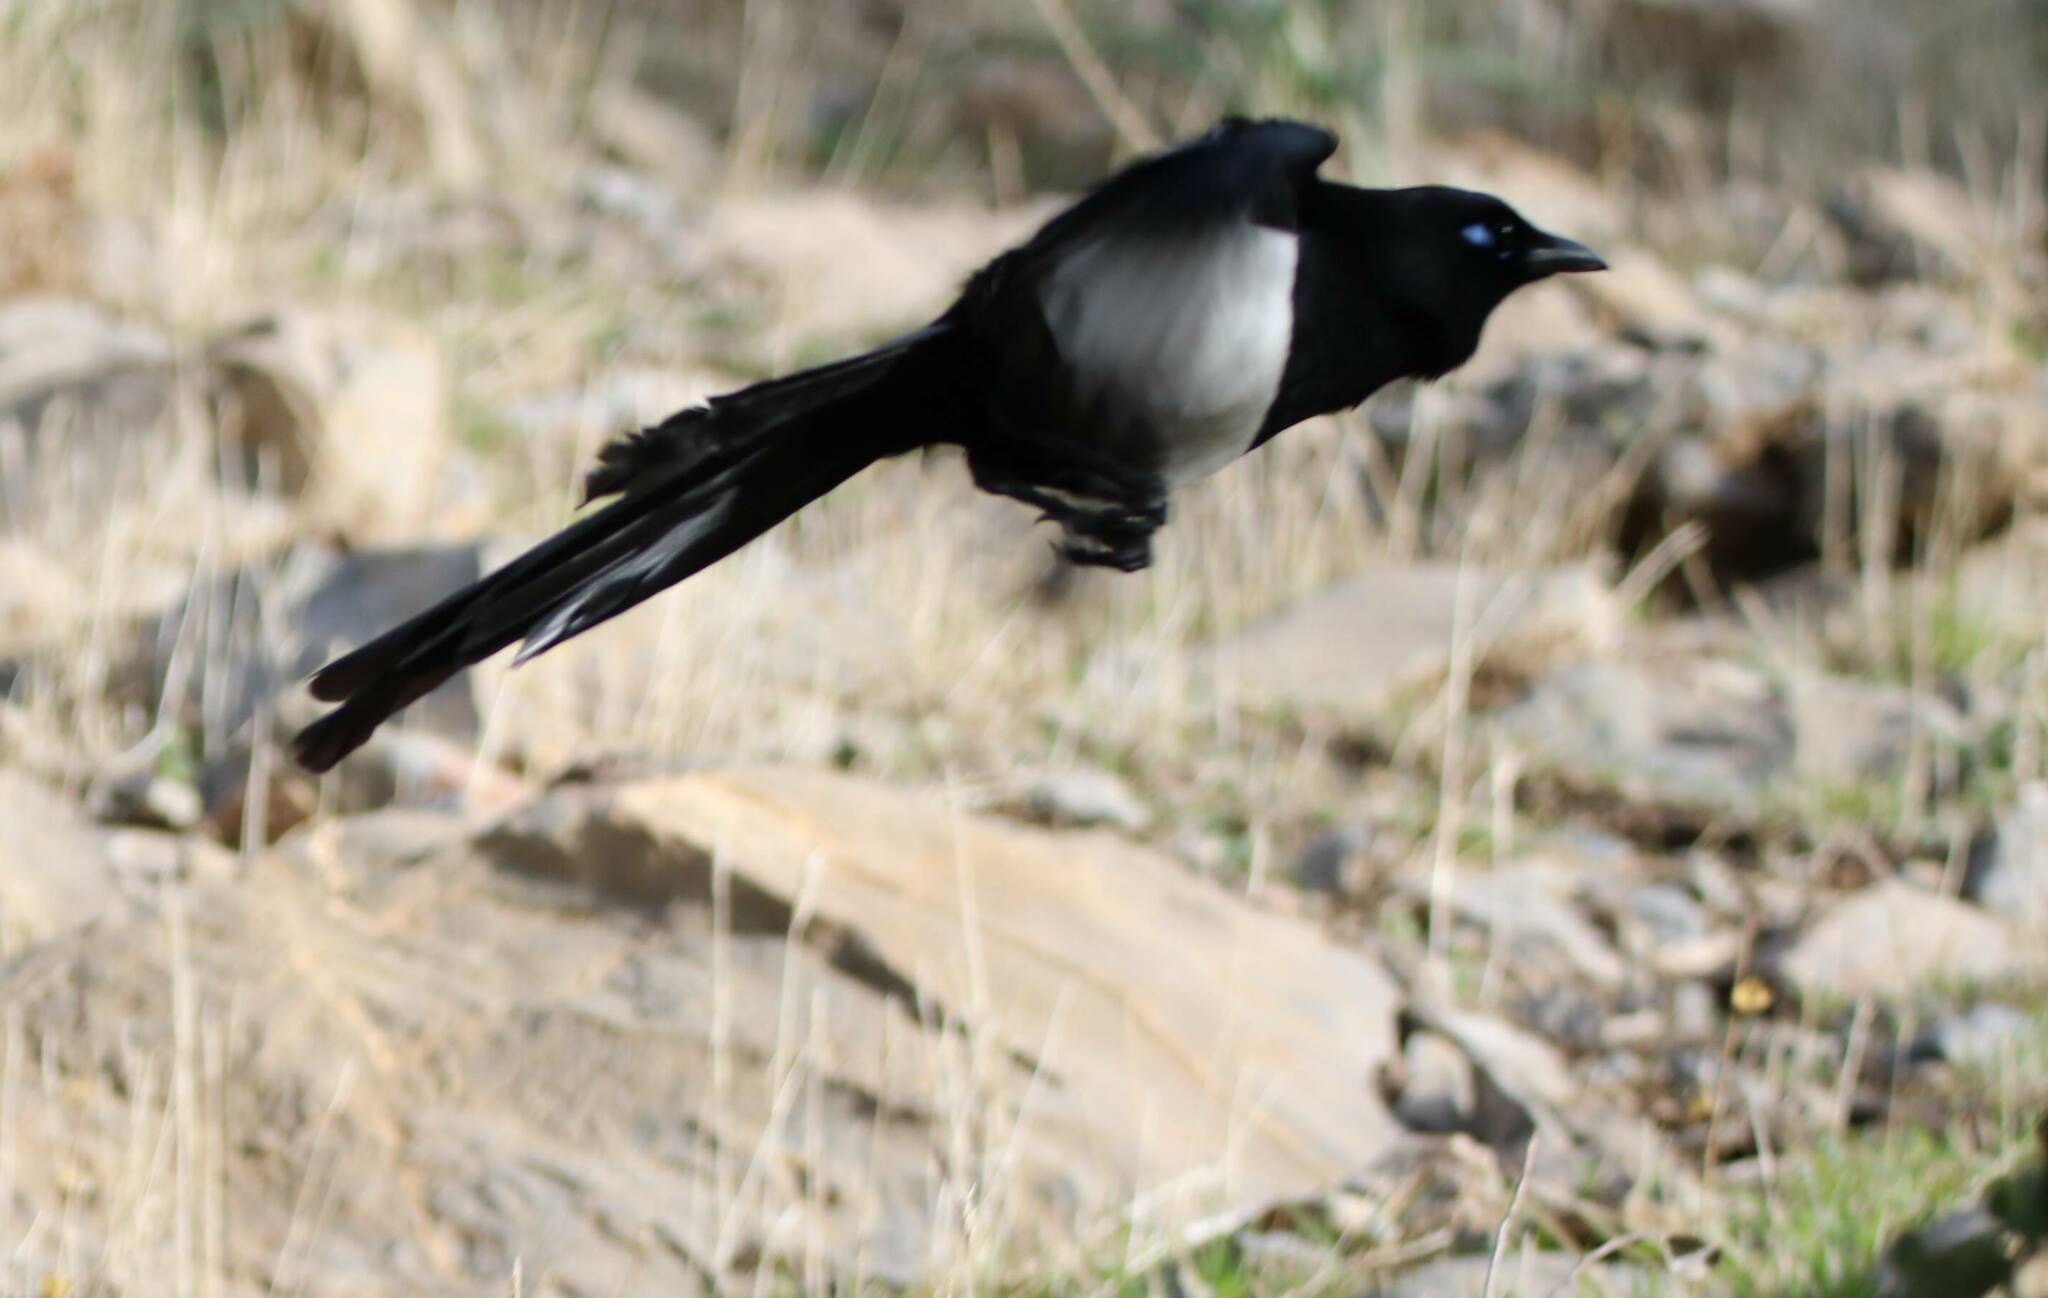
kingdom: Animalia
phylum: Chordata
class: Aves
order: Passeriformes
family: Corvidae
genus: Pica
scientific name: Pica mauritanica
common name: Maghreb magpie
